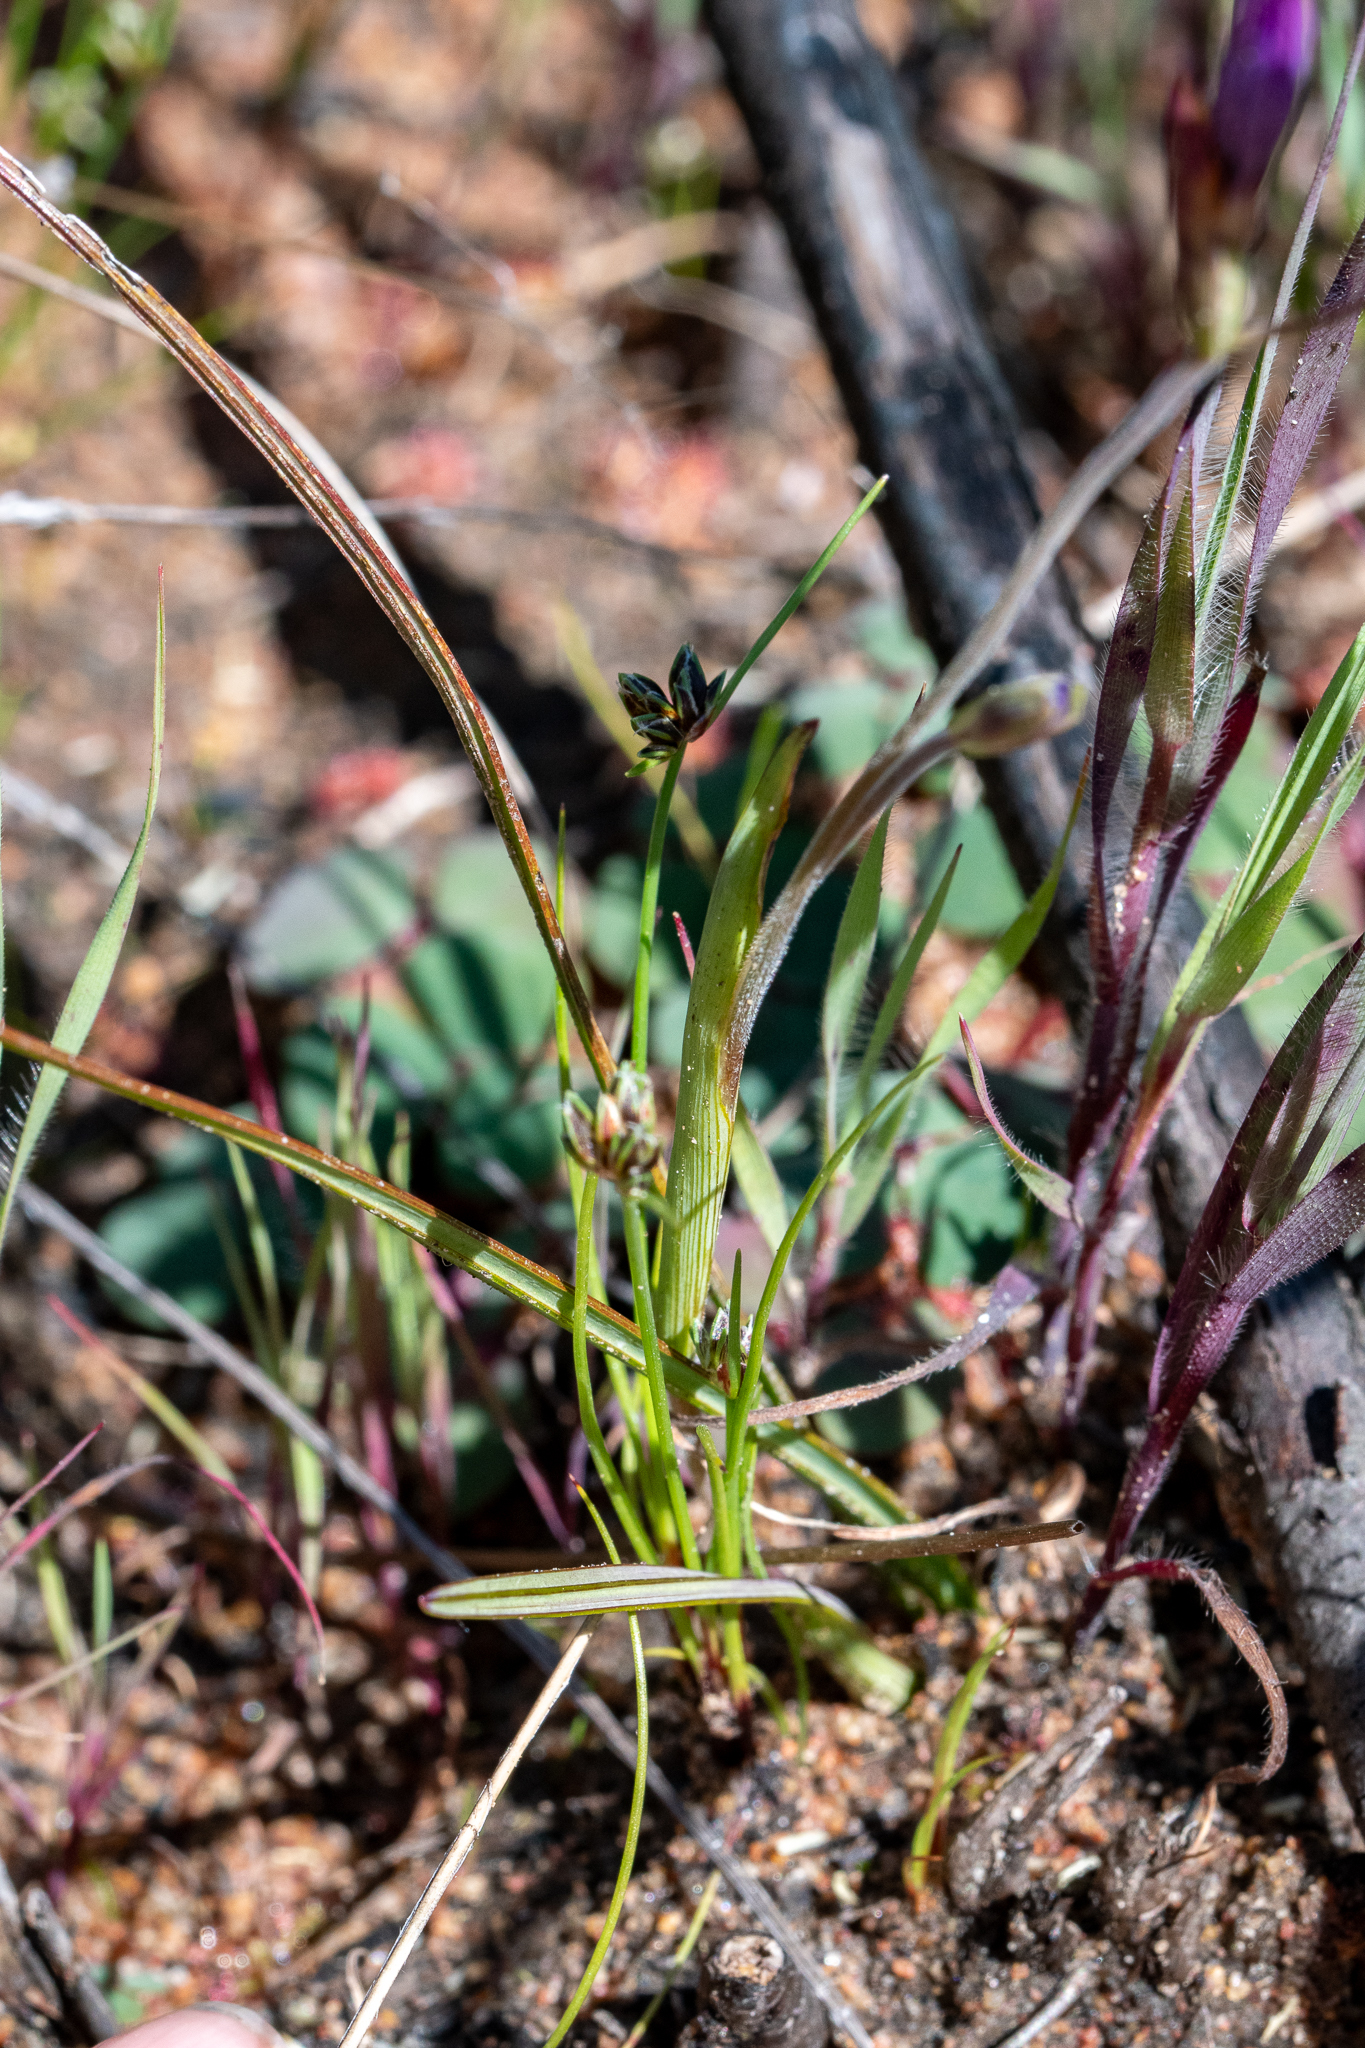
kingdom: Plantae
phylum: Tracheophyta
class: Liliopsida
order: Asparagales
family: Iridaceae
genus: Geissorhiza
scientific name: Geissorhiza aspera
